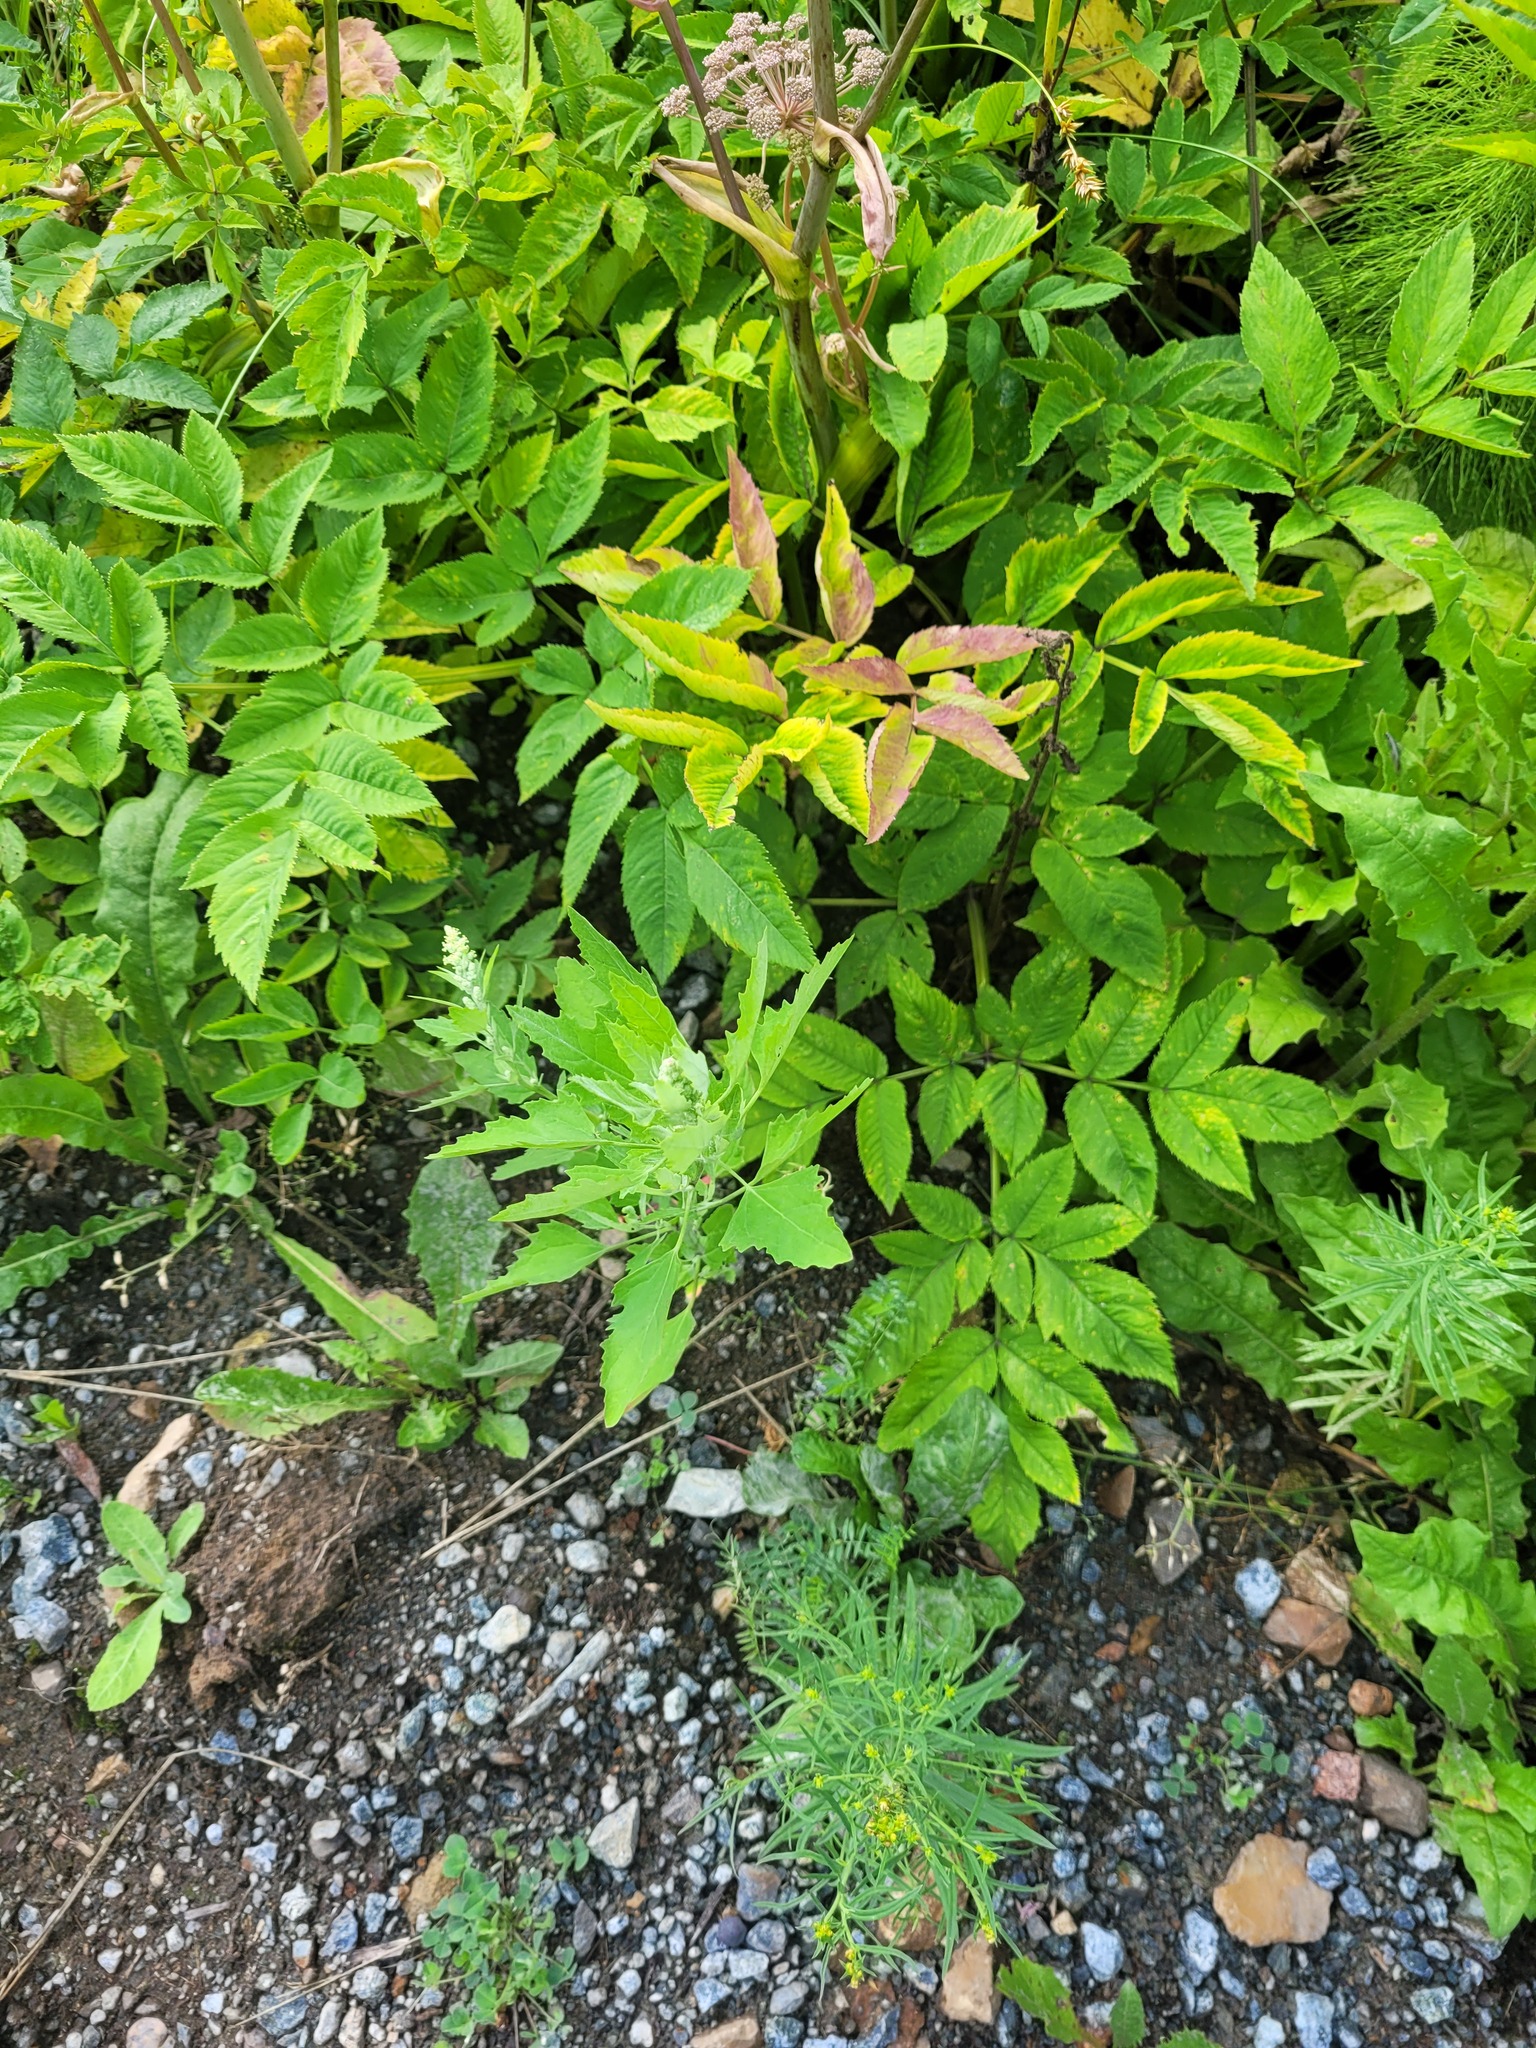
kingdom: Plantae
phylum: Tracheophyta
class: Magnoliopsida
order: Apiales
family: Apiaceae
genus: Angelica
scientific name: Angelica sylvestris
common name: Wild angelica
